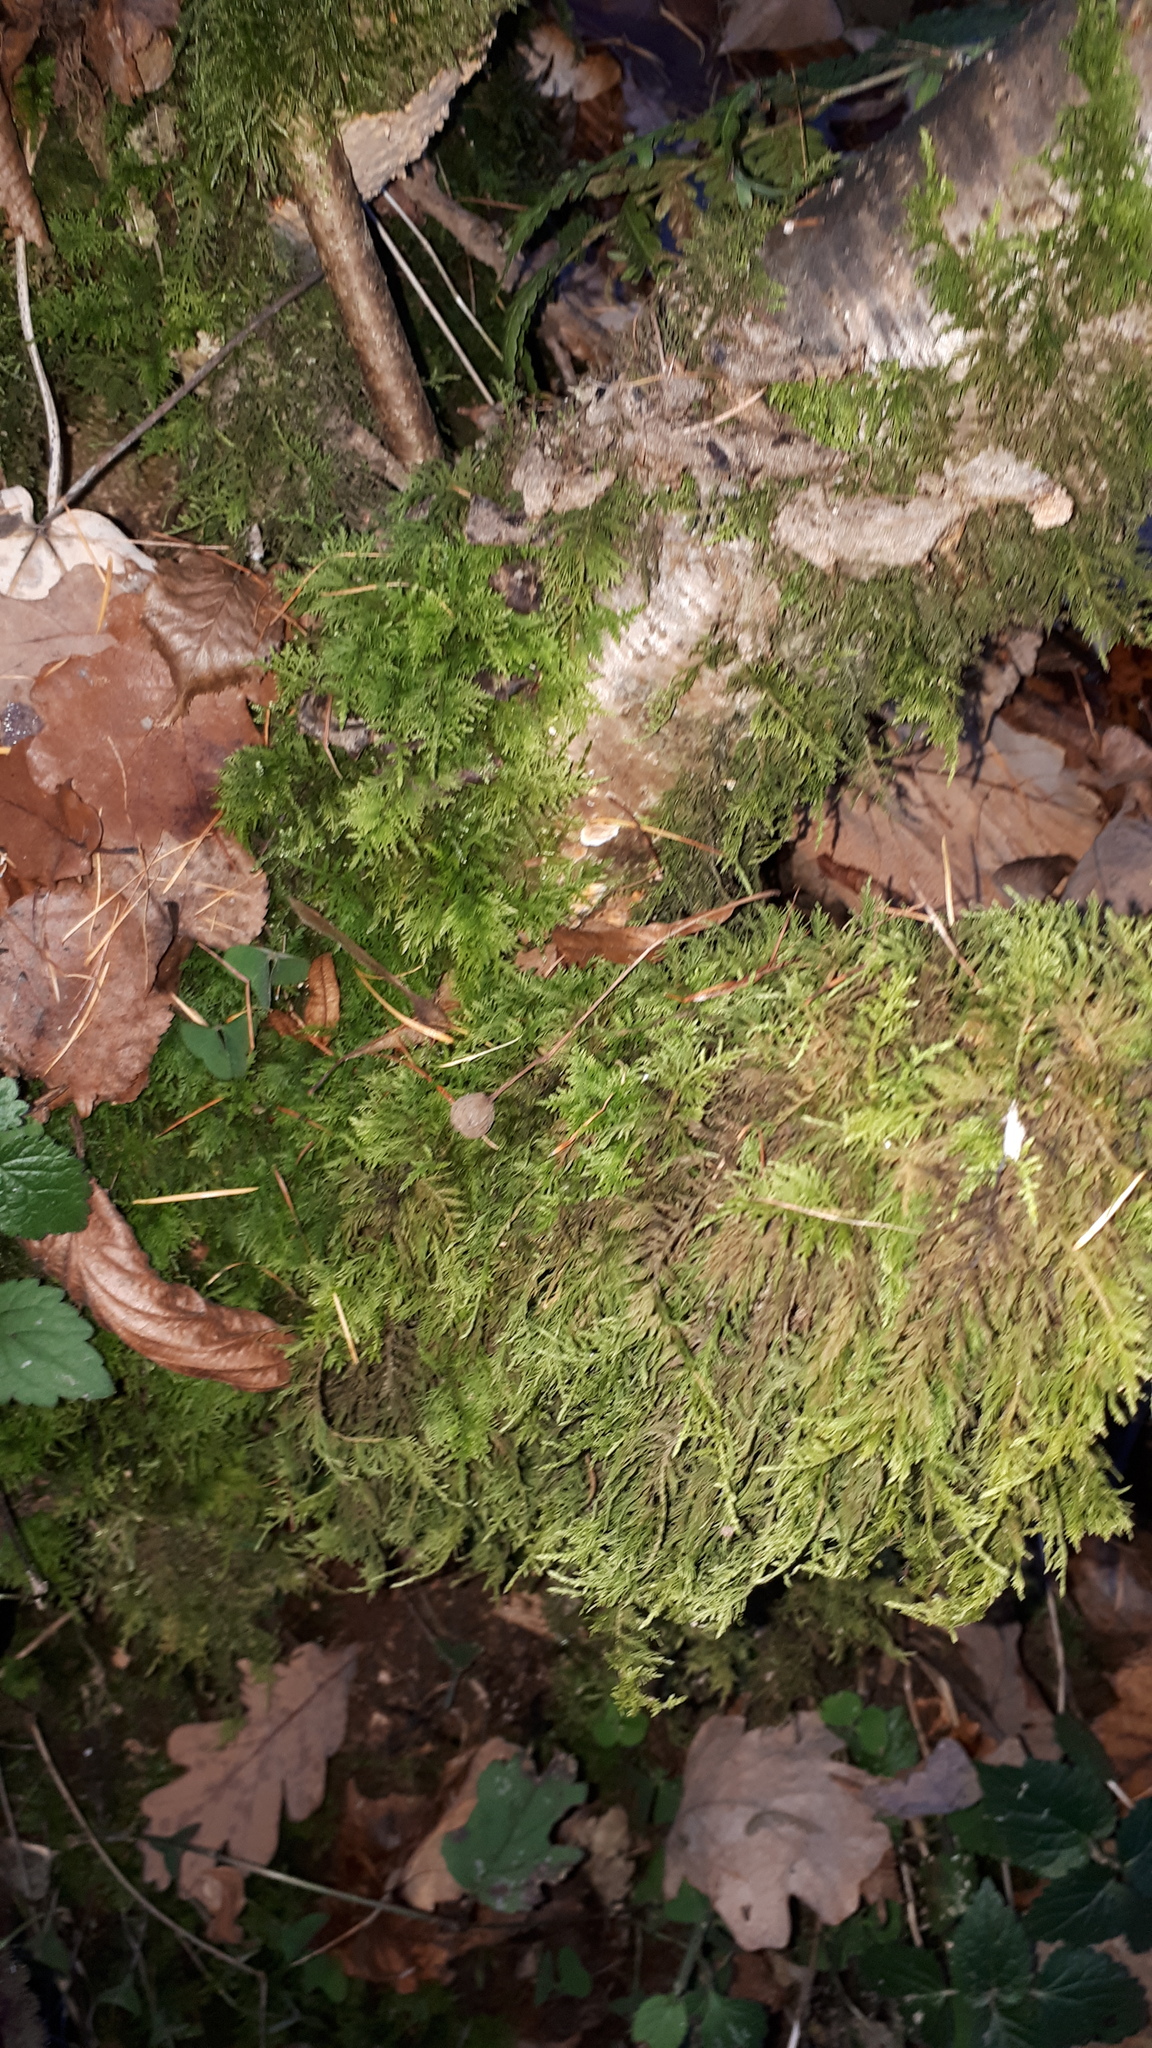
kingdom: Plantae
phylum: Bryophyta
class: Bryopsida
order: Hypnales
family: Thuidiaceae
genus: Thuidium
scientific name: Thuidium tamariscinum
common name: Common tamarisk-moss
